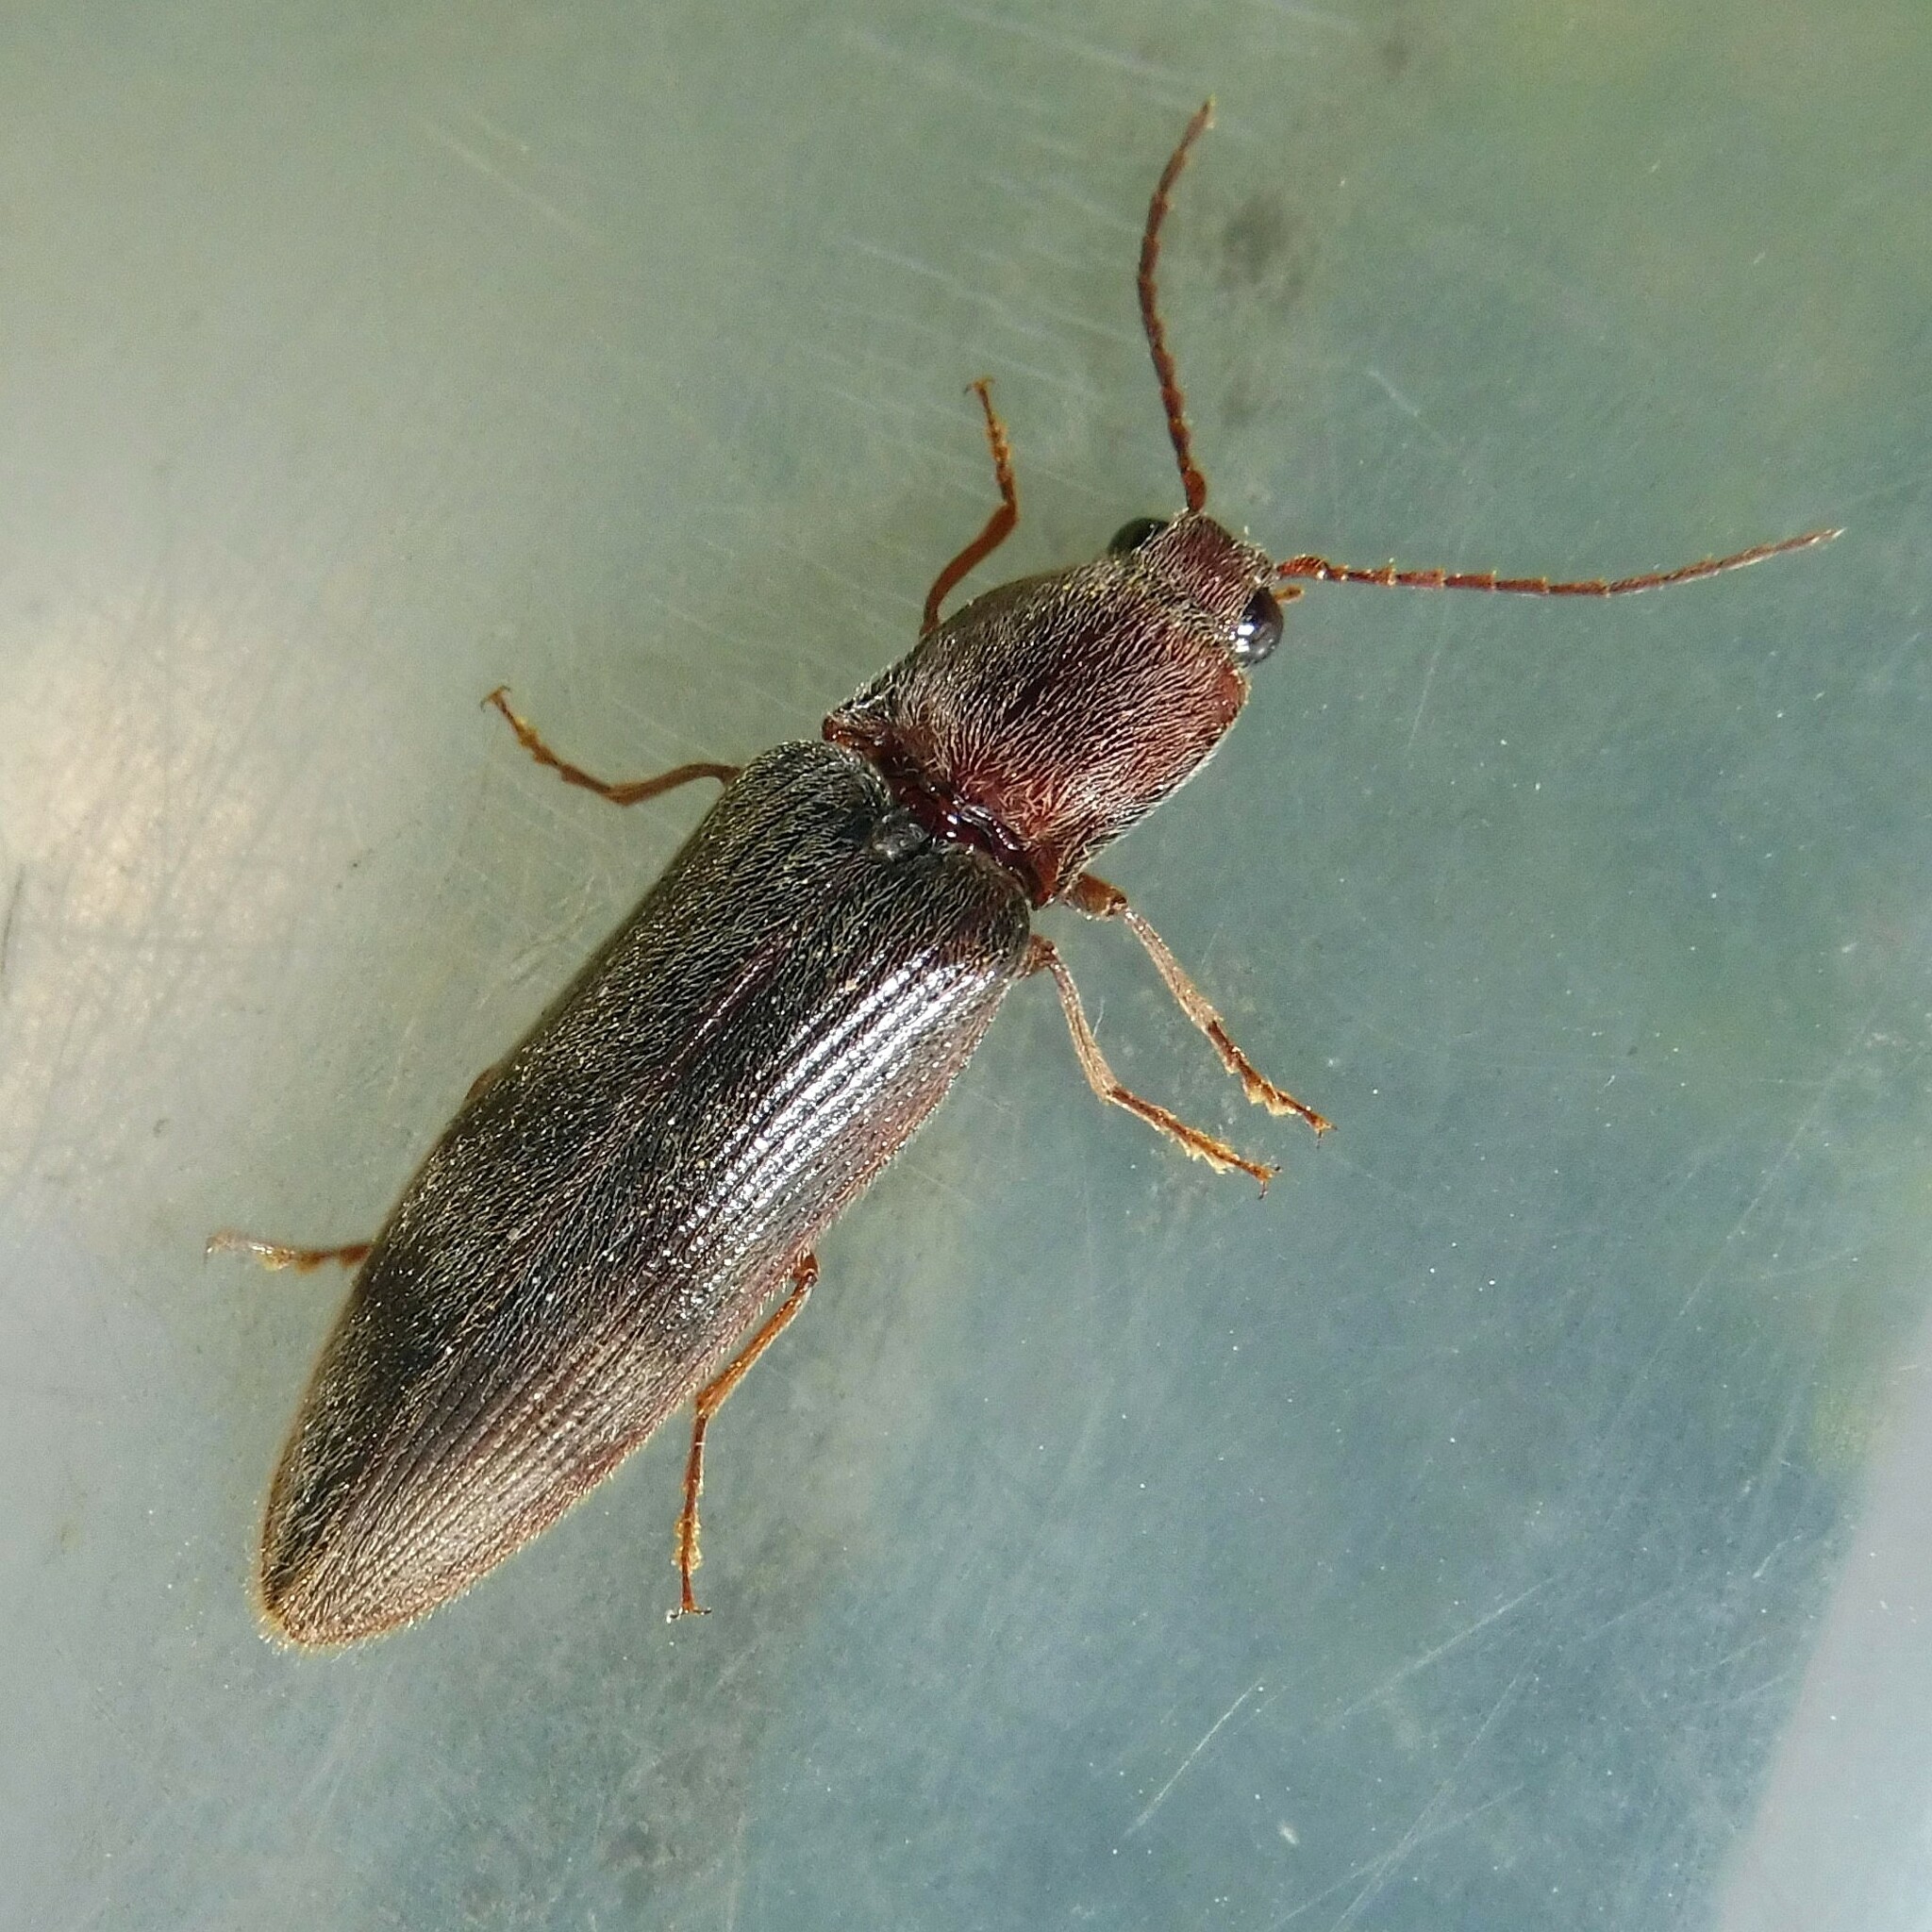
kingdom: Animalia
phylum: Arthropoda
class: Insecta
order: Coleoptera
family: Elateridae
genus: Stenagostus
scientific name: Stenagostus rhombeus
